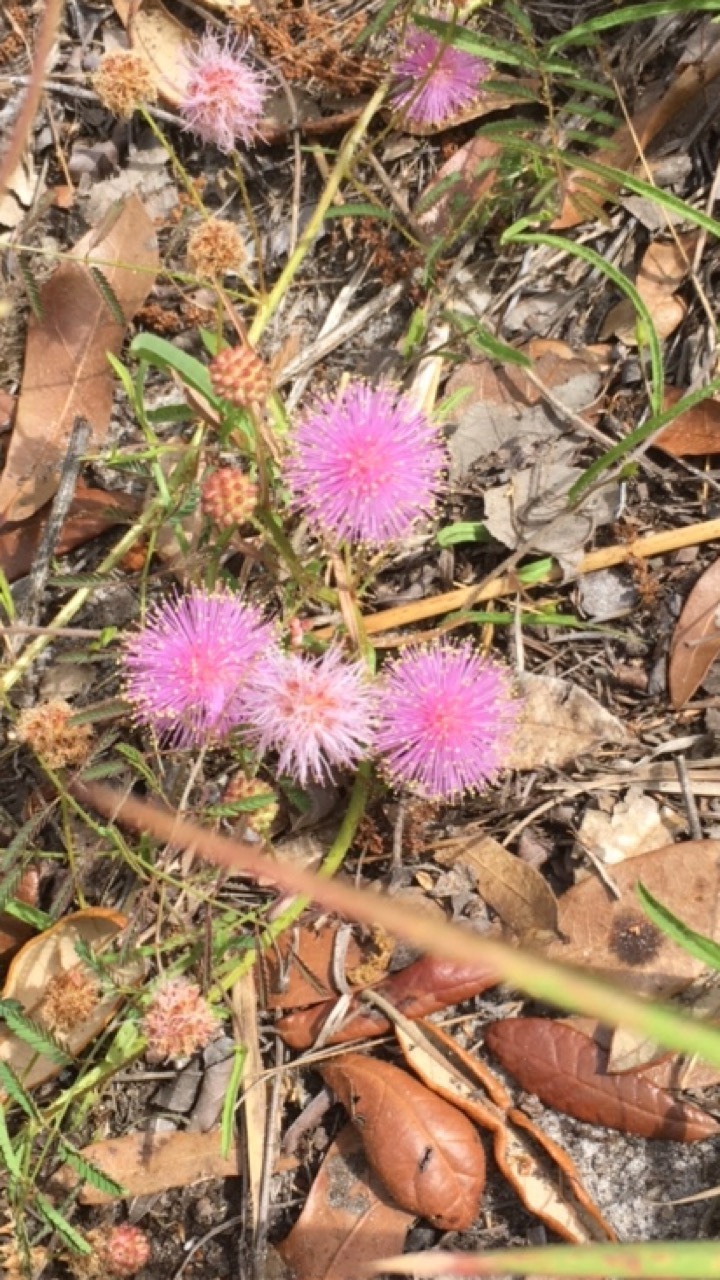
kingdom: Plantae
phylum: Tracheophyta
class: Magnoliopsida
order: Fabales
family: Fabaceae
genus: Mimosa
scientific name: Mimosa quadrivalvis
